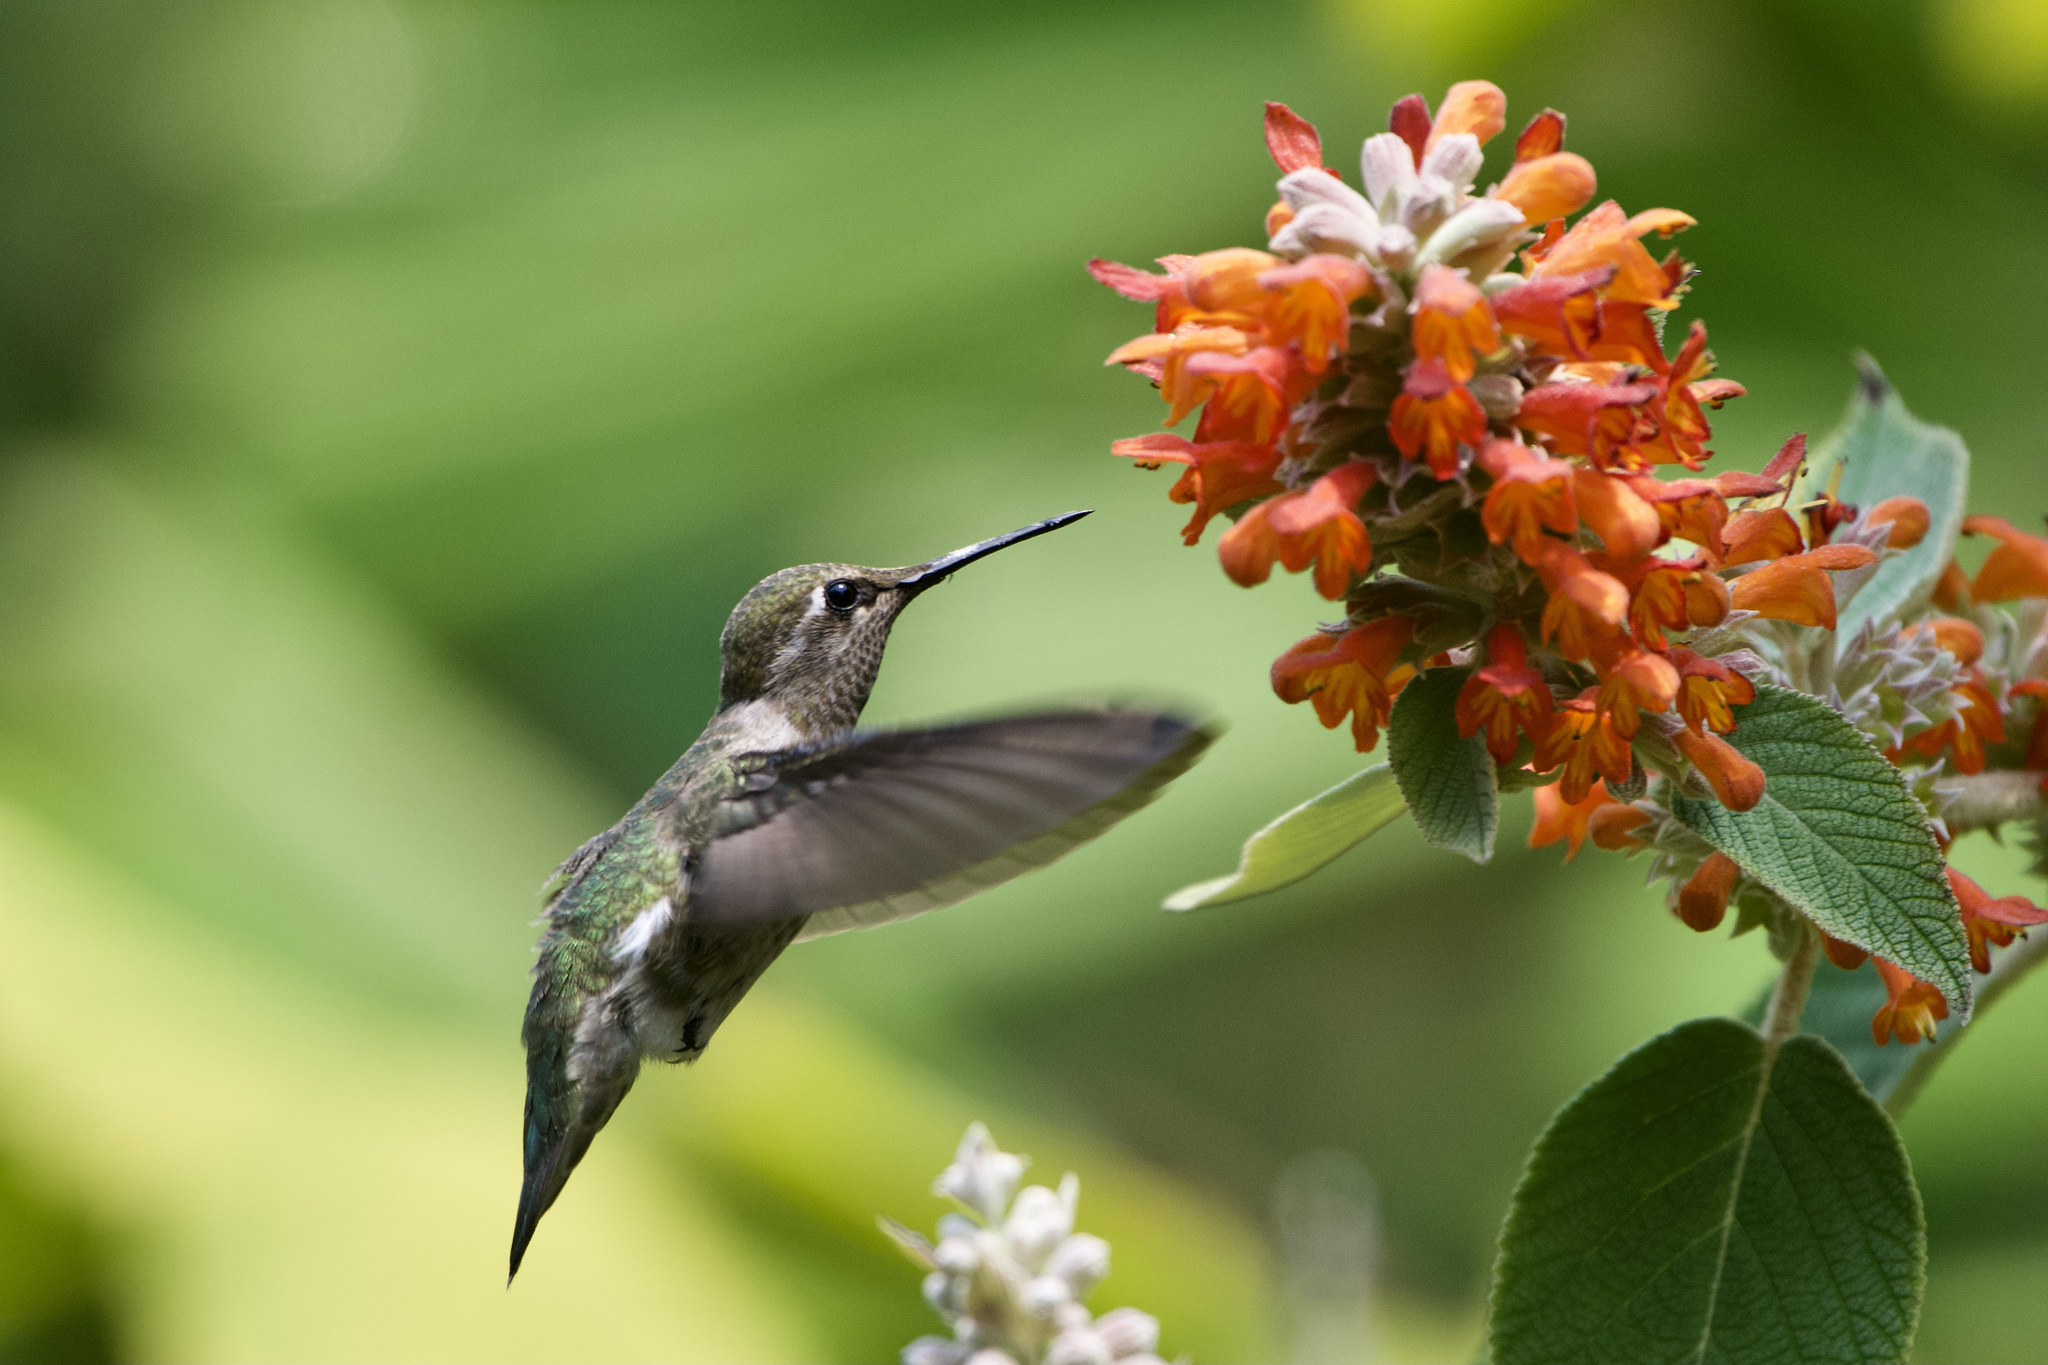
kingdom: Animalia
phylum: Chordata
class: Aves
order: Apodiformes
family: Trochilidae
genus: Calypte
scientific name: Calypte anna
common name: Anna's hummingbird
